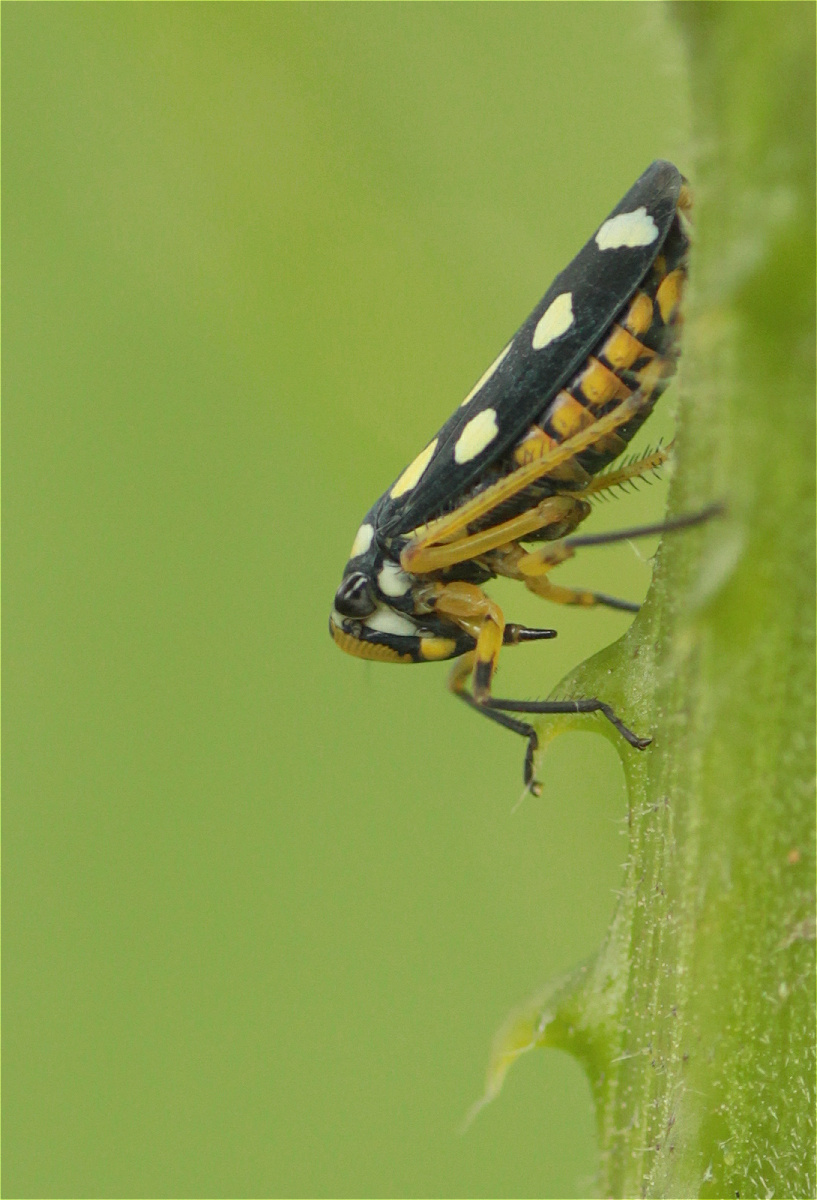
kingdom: Animalia
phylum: Arthropoda
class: Insecta
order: Hemiptera
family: Cicadellidae
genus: Stehlikiana
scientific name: Stehlikiana crassa
